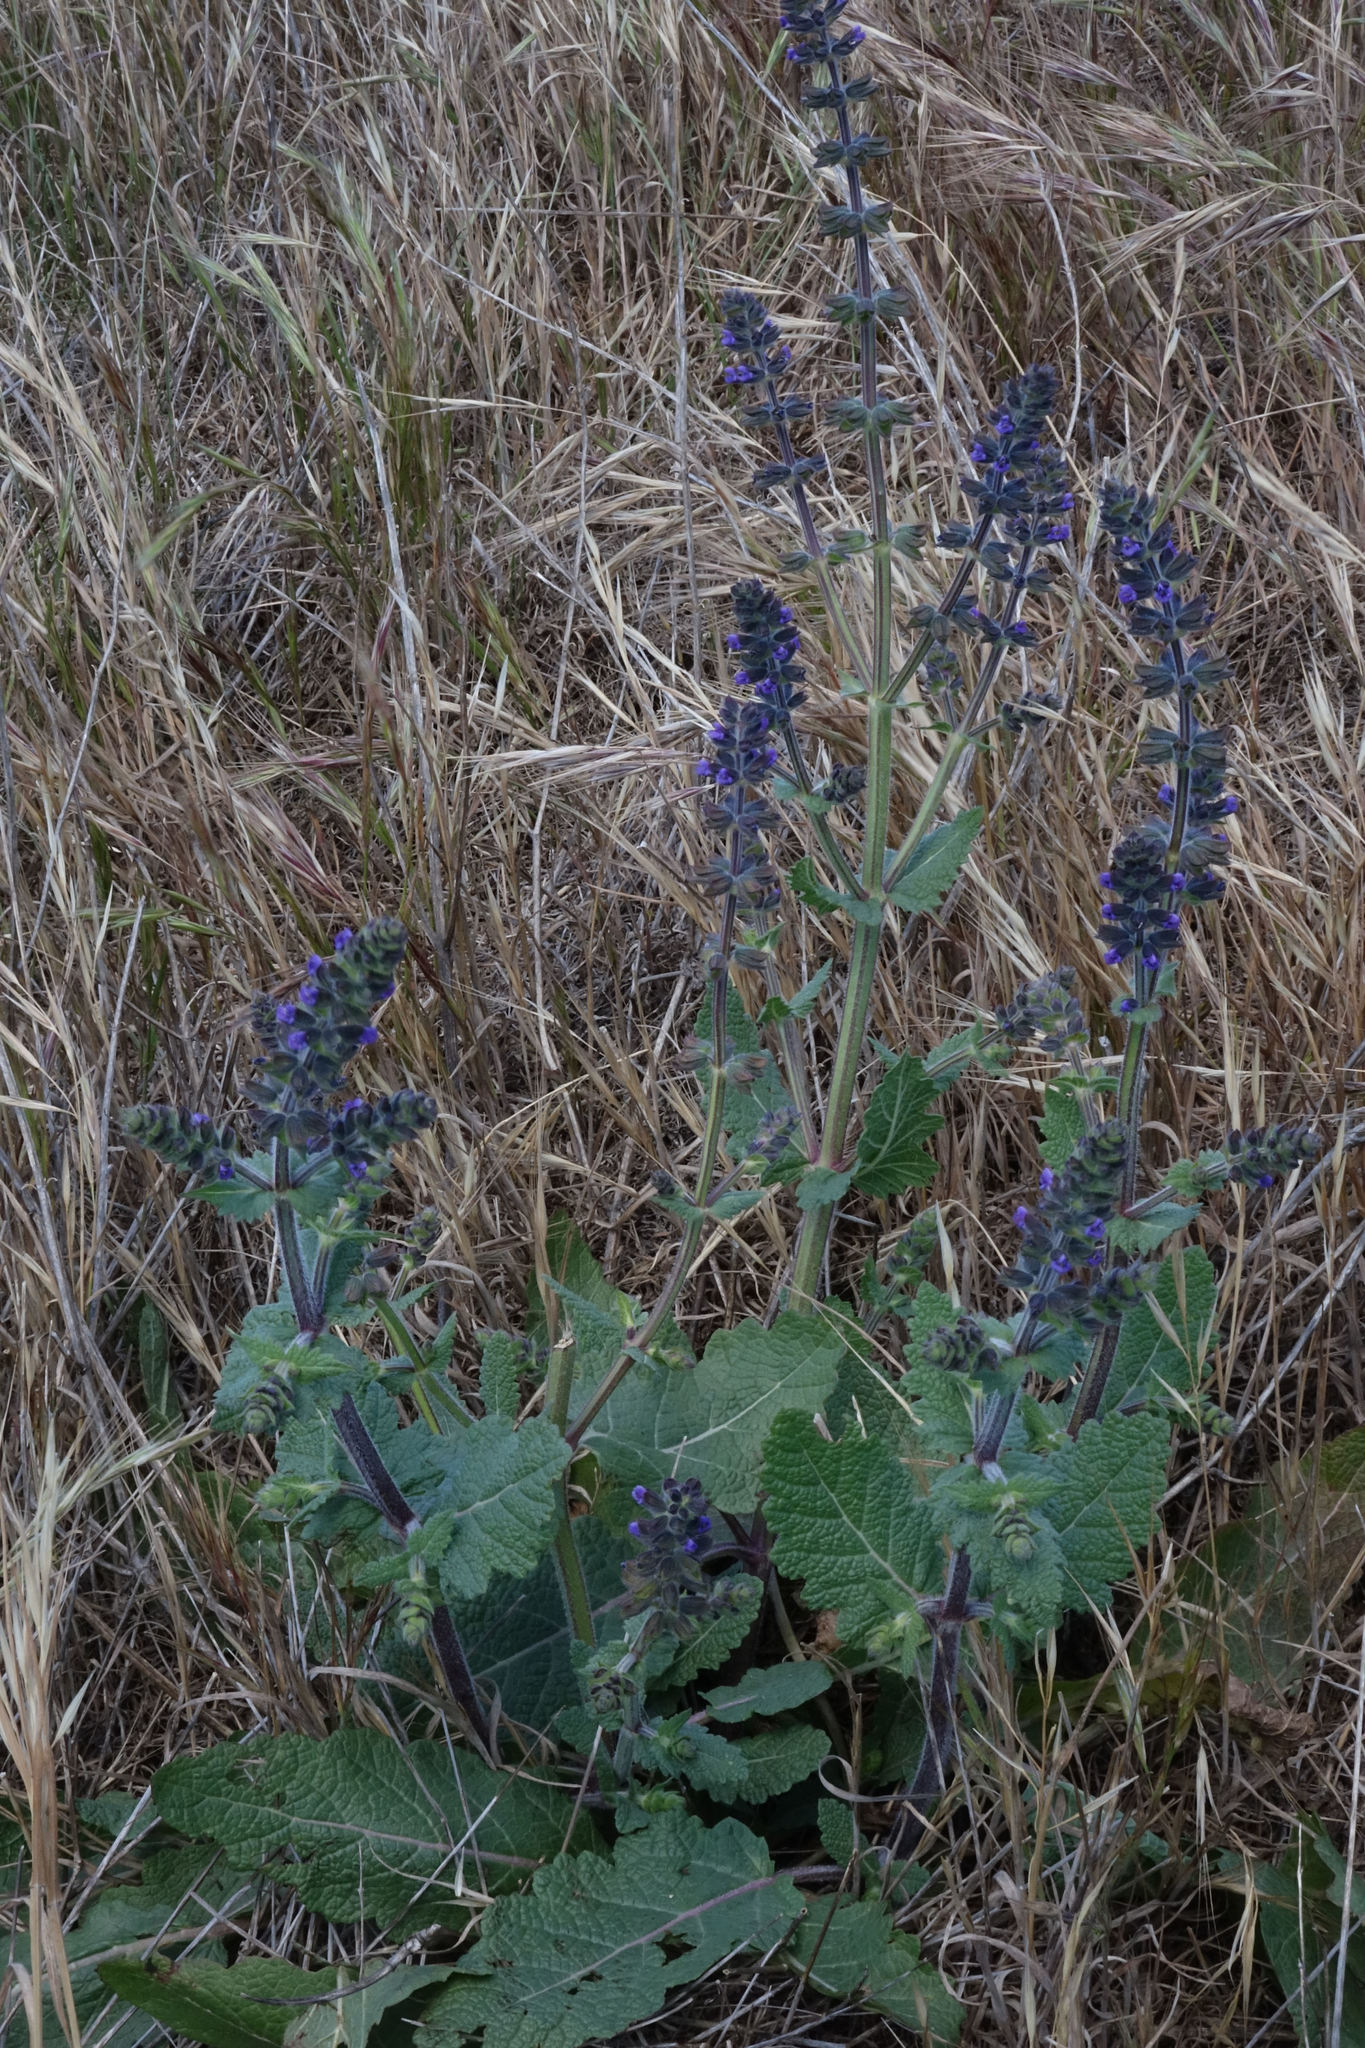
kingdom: Plantae
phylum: Tracheophyta
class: Magnoliopsida
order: Lamiales
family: Lamiaceae
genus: Salvia
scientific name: Salvia verbenaca
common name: Wild clary
